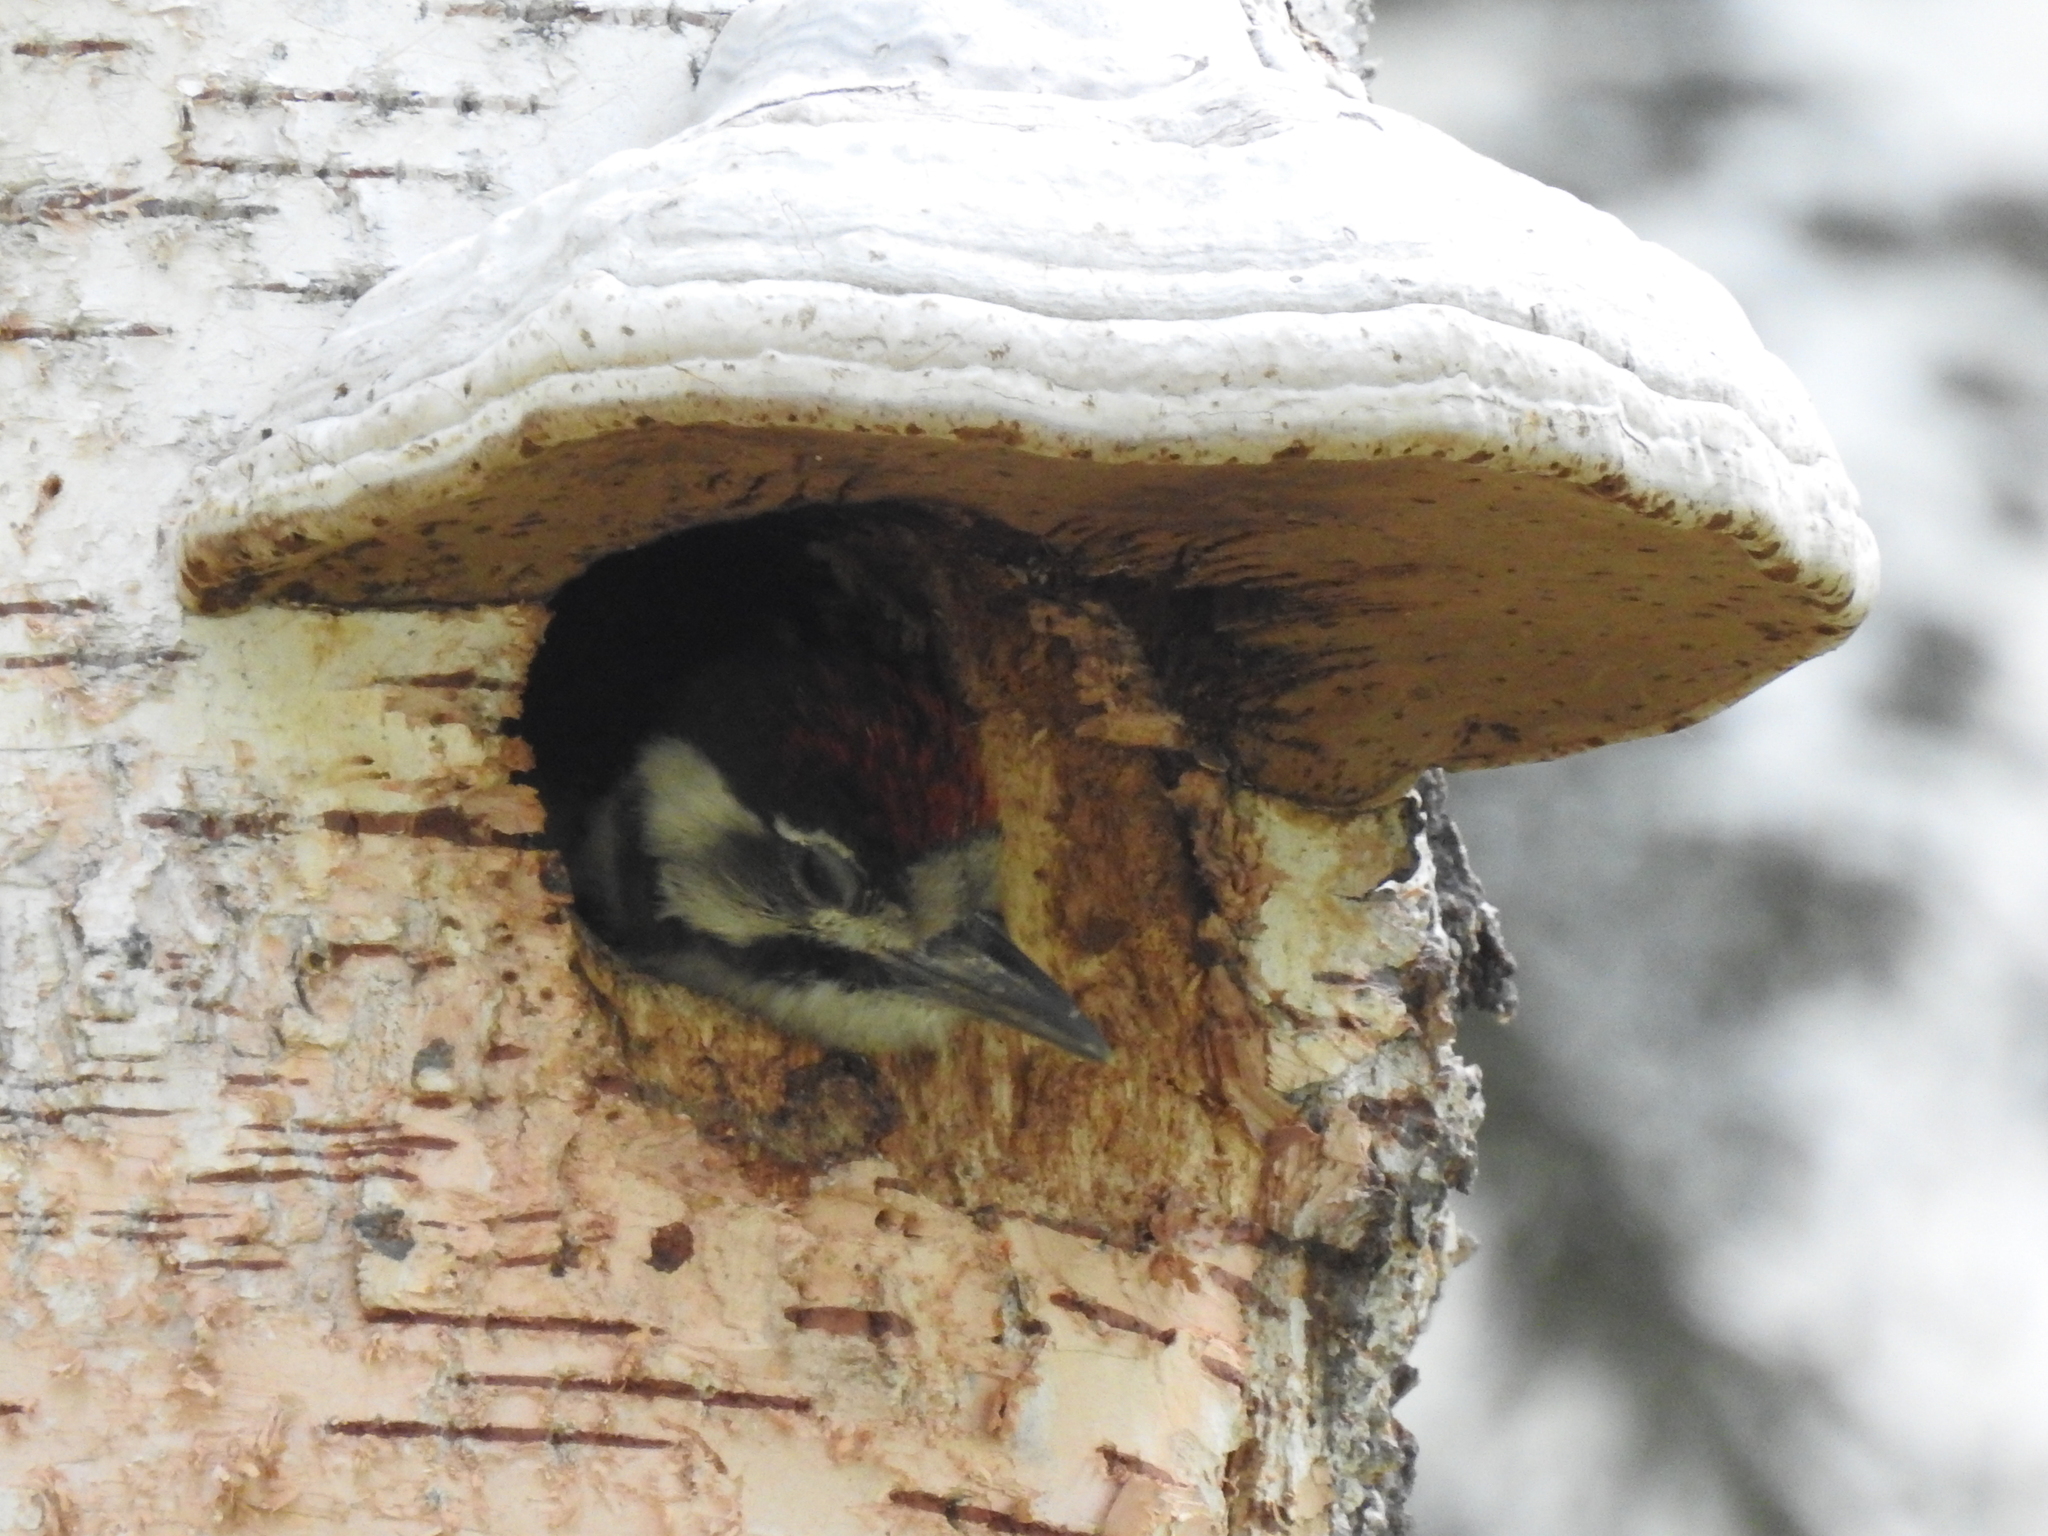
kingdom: Animalia
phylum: Chordata
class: Aves
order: Piciformes
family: Picidae
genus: Dendrocopos
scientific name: Dendrocopos major
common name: Great spotted woodpecker
